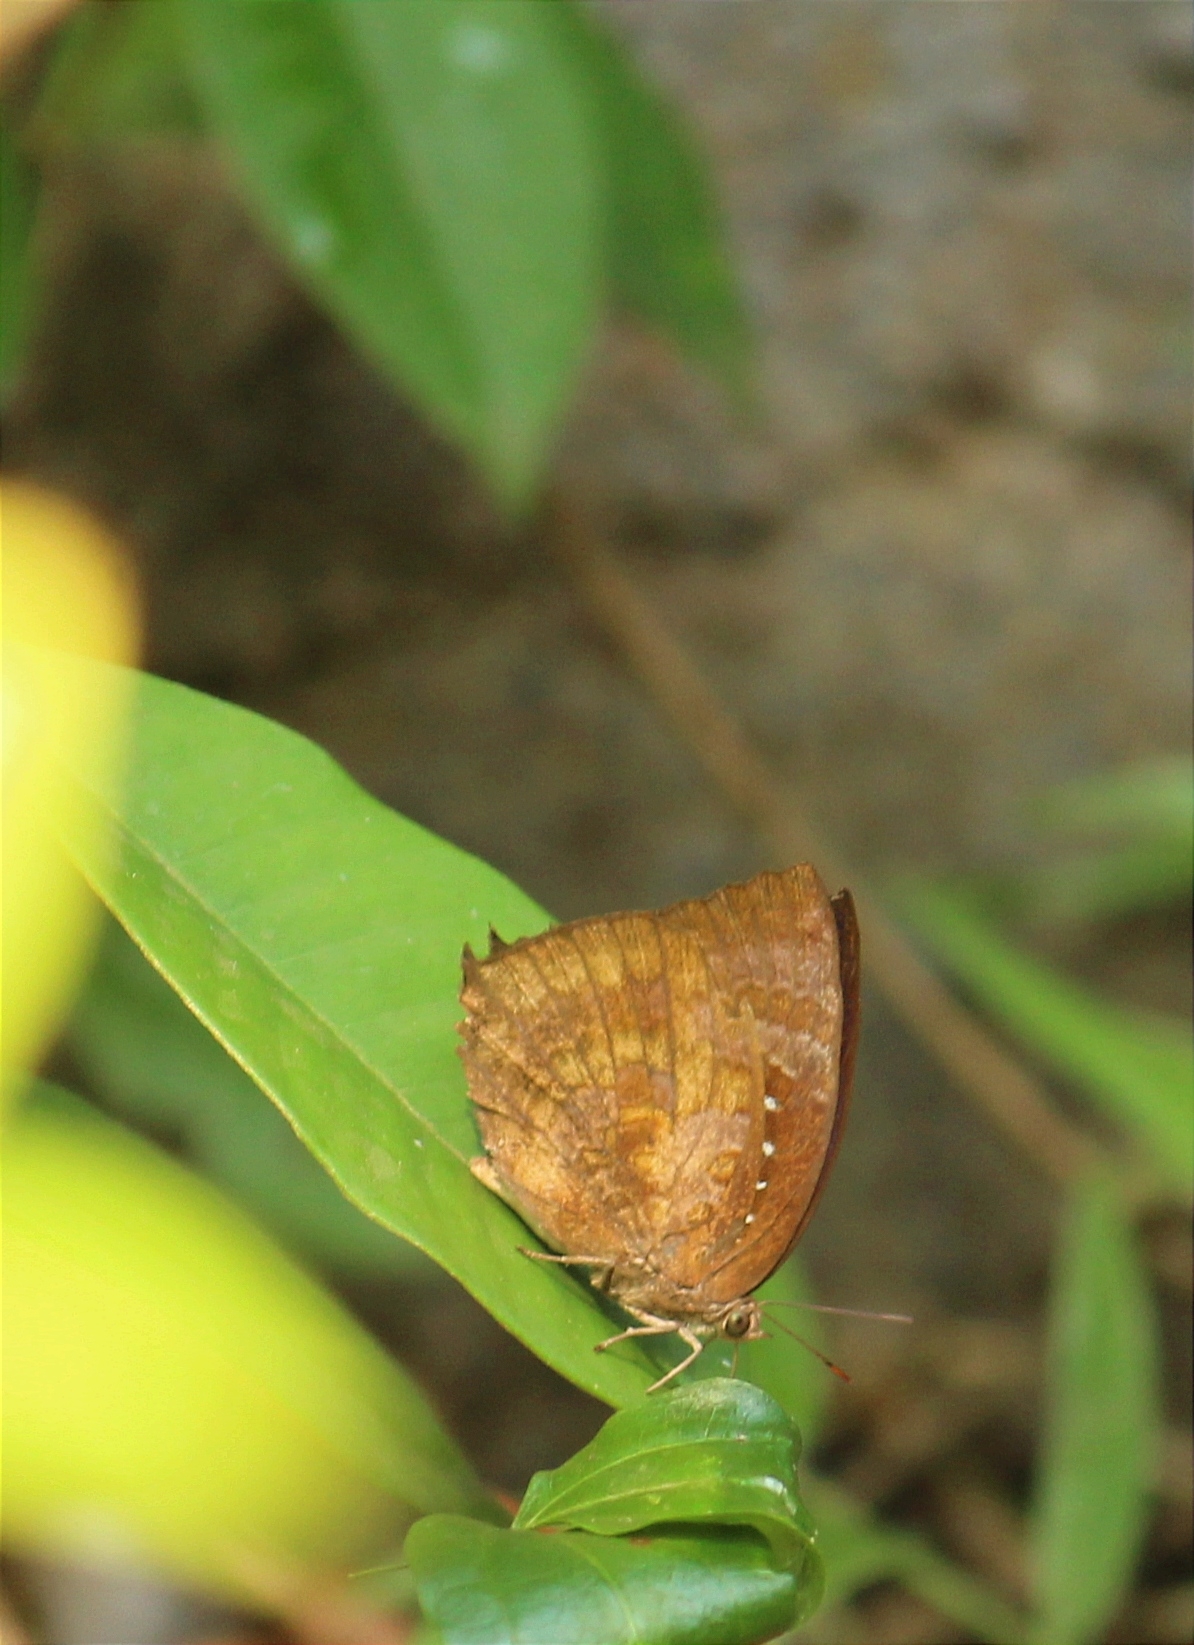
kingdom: Animalia
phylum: Arthropoda
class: Insecta
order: Lepidoptera
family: Lycaenidae
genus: Arhopala
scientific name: Arhopala centaurus
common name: Dull oak-blue
